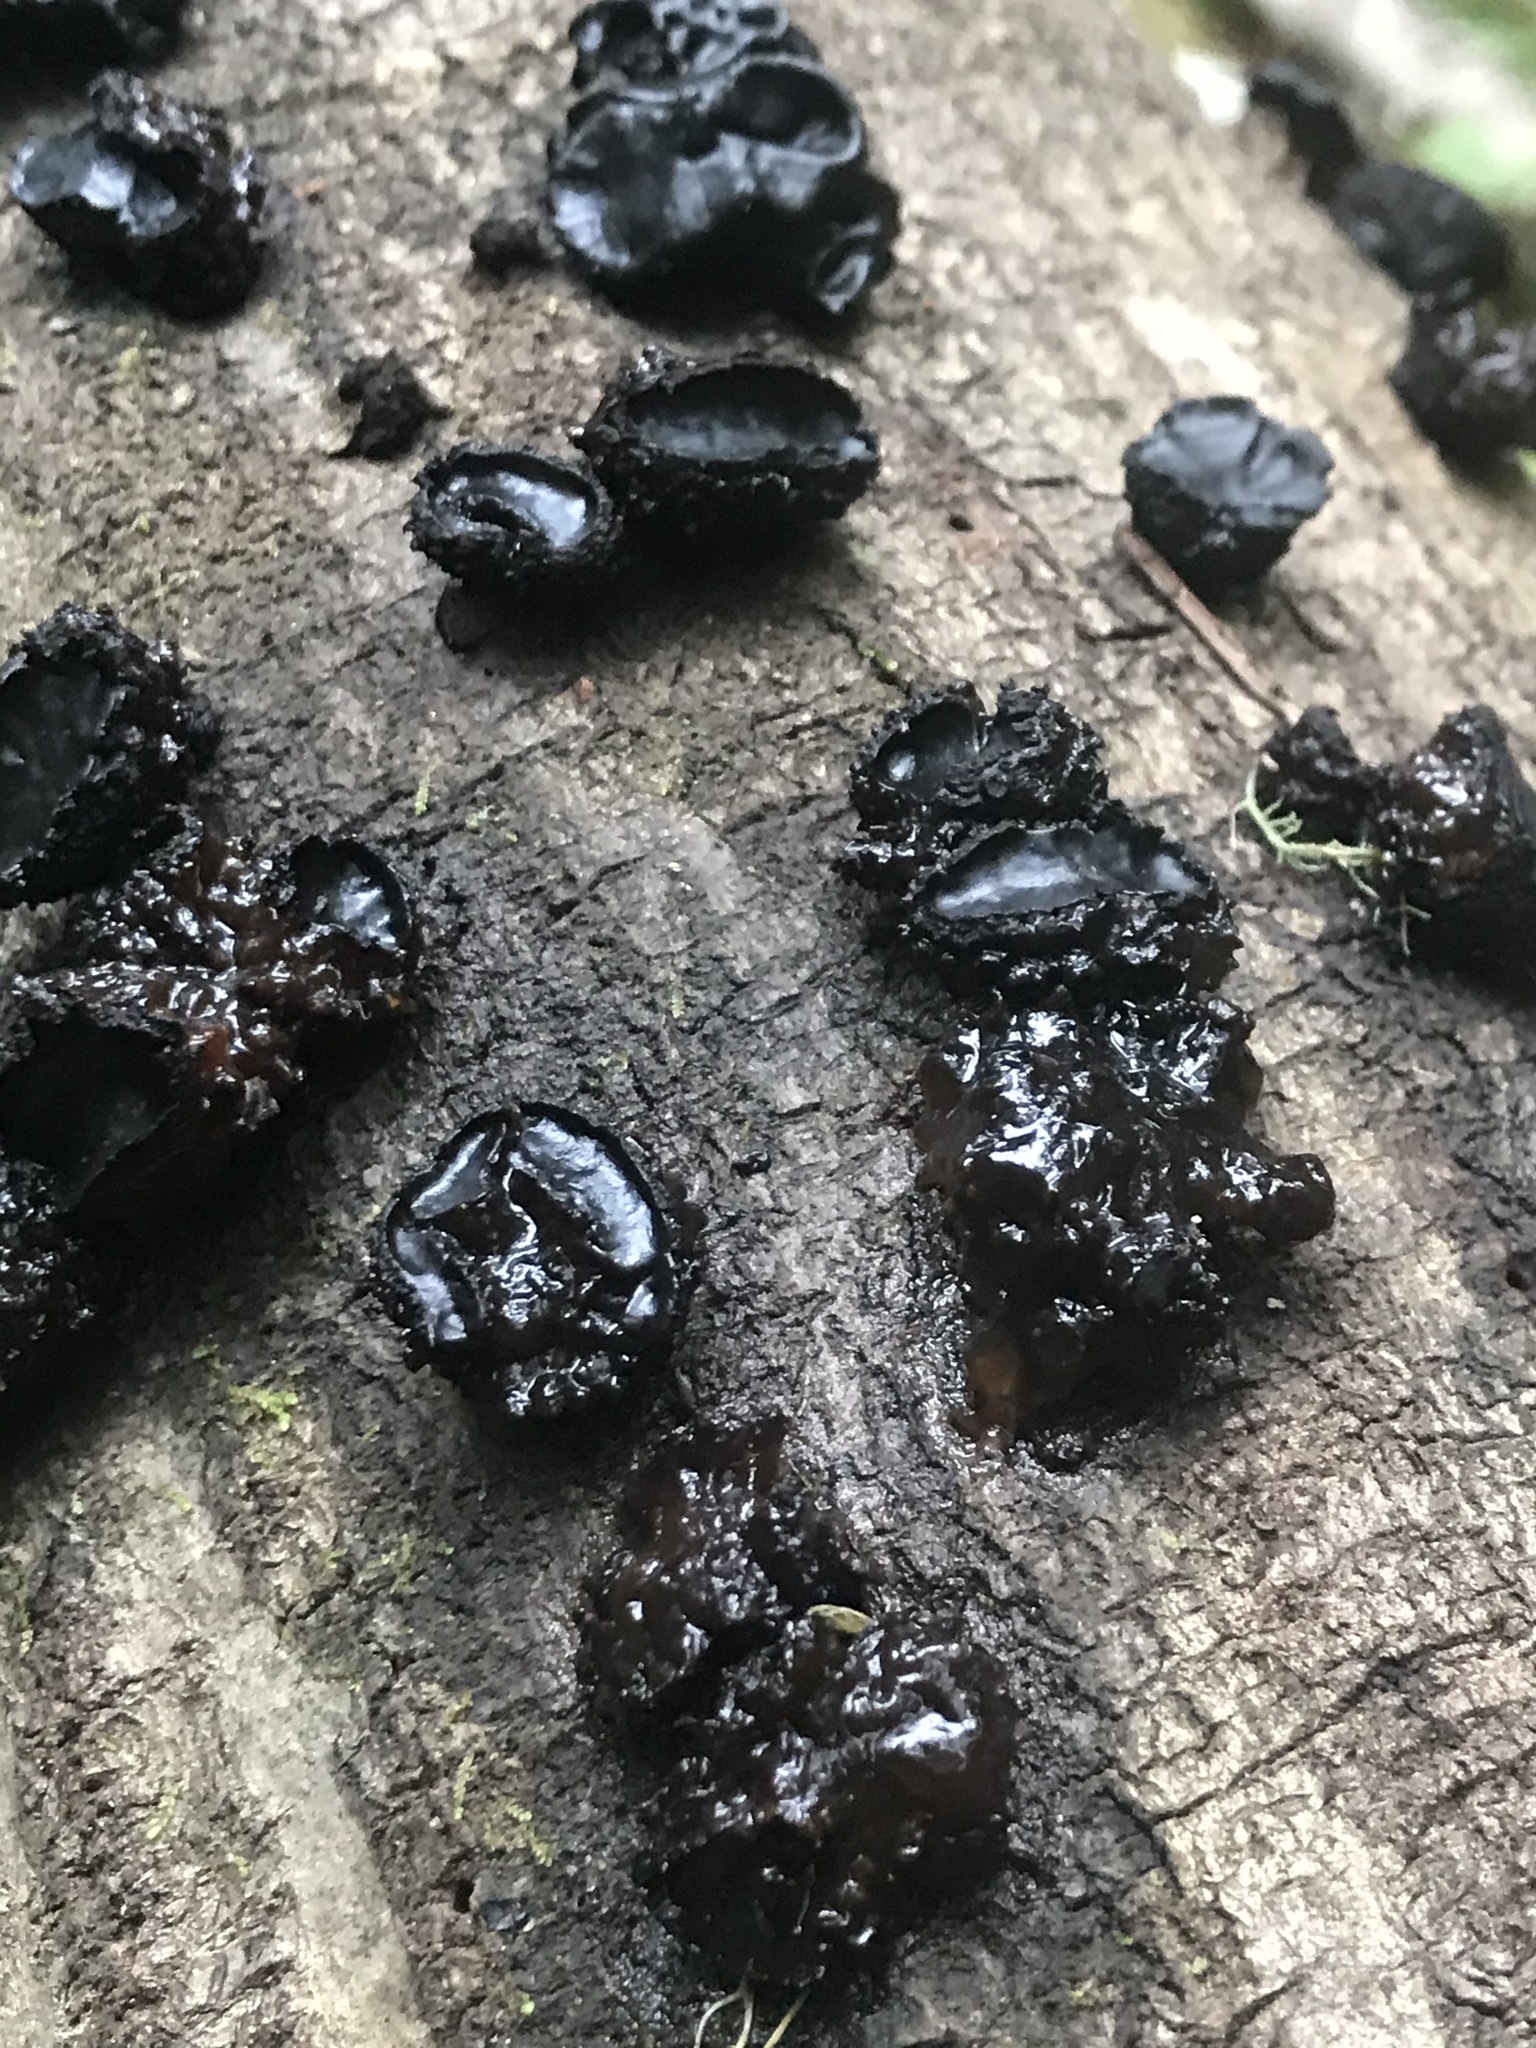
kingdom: Fungi
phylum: Ascomycota
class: Leotiomycetes
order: Phacidiales
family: Phacidiaceae
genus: Bulgaria
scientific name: Bulgaria inquinans
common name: Black bulgar
